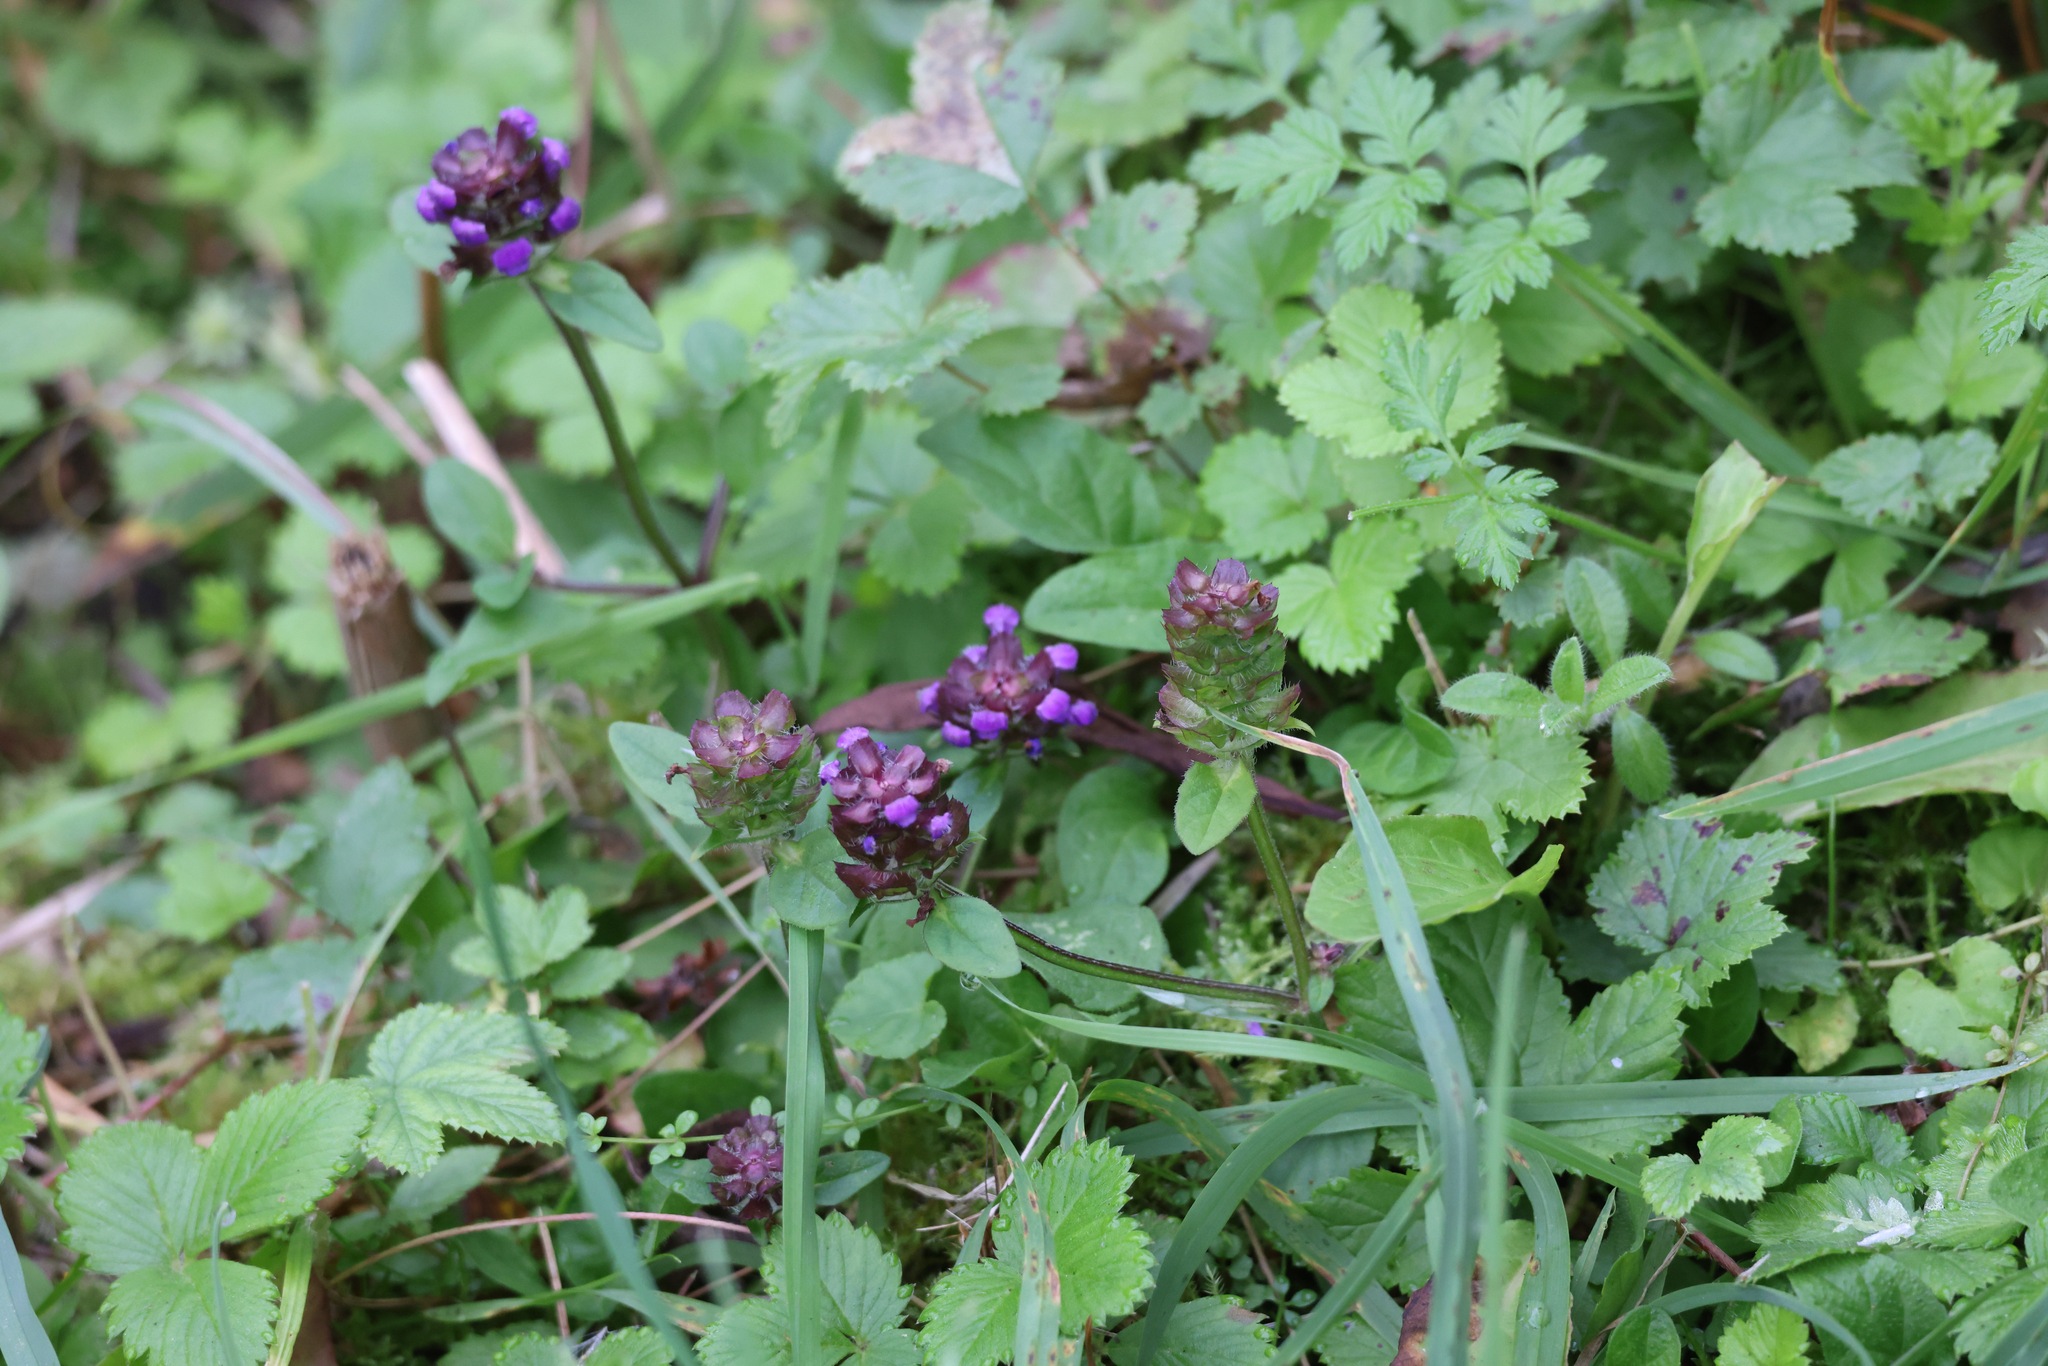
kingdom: Plantae
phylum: Tracheophyta
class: Magnoliopsida
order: Lamiales
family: Lamiaceae
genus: Prunella
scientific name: Prunella vulgaris
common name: Heal-all
